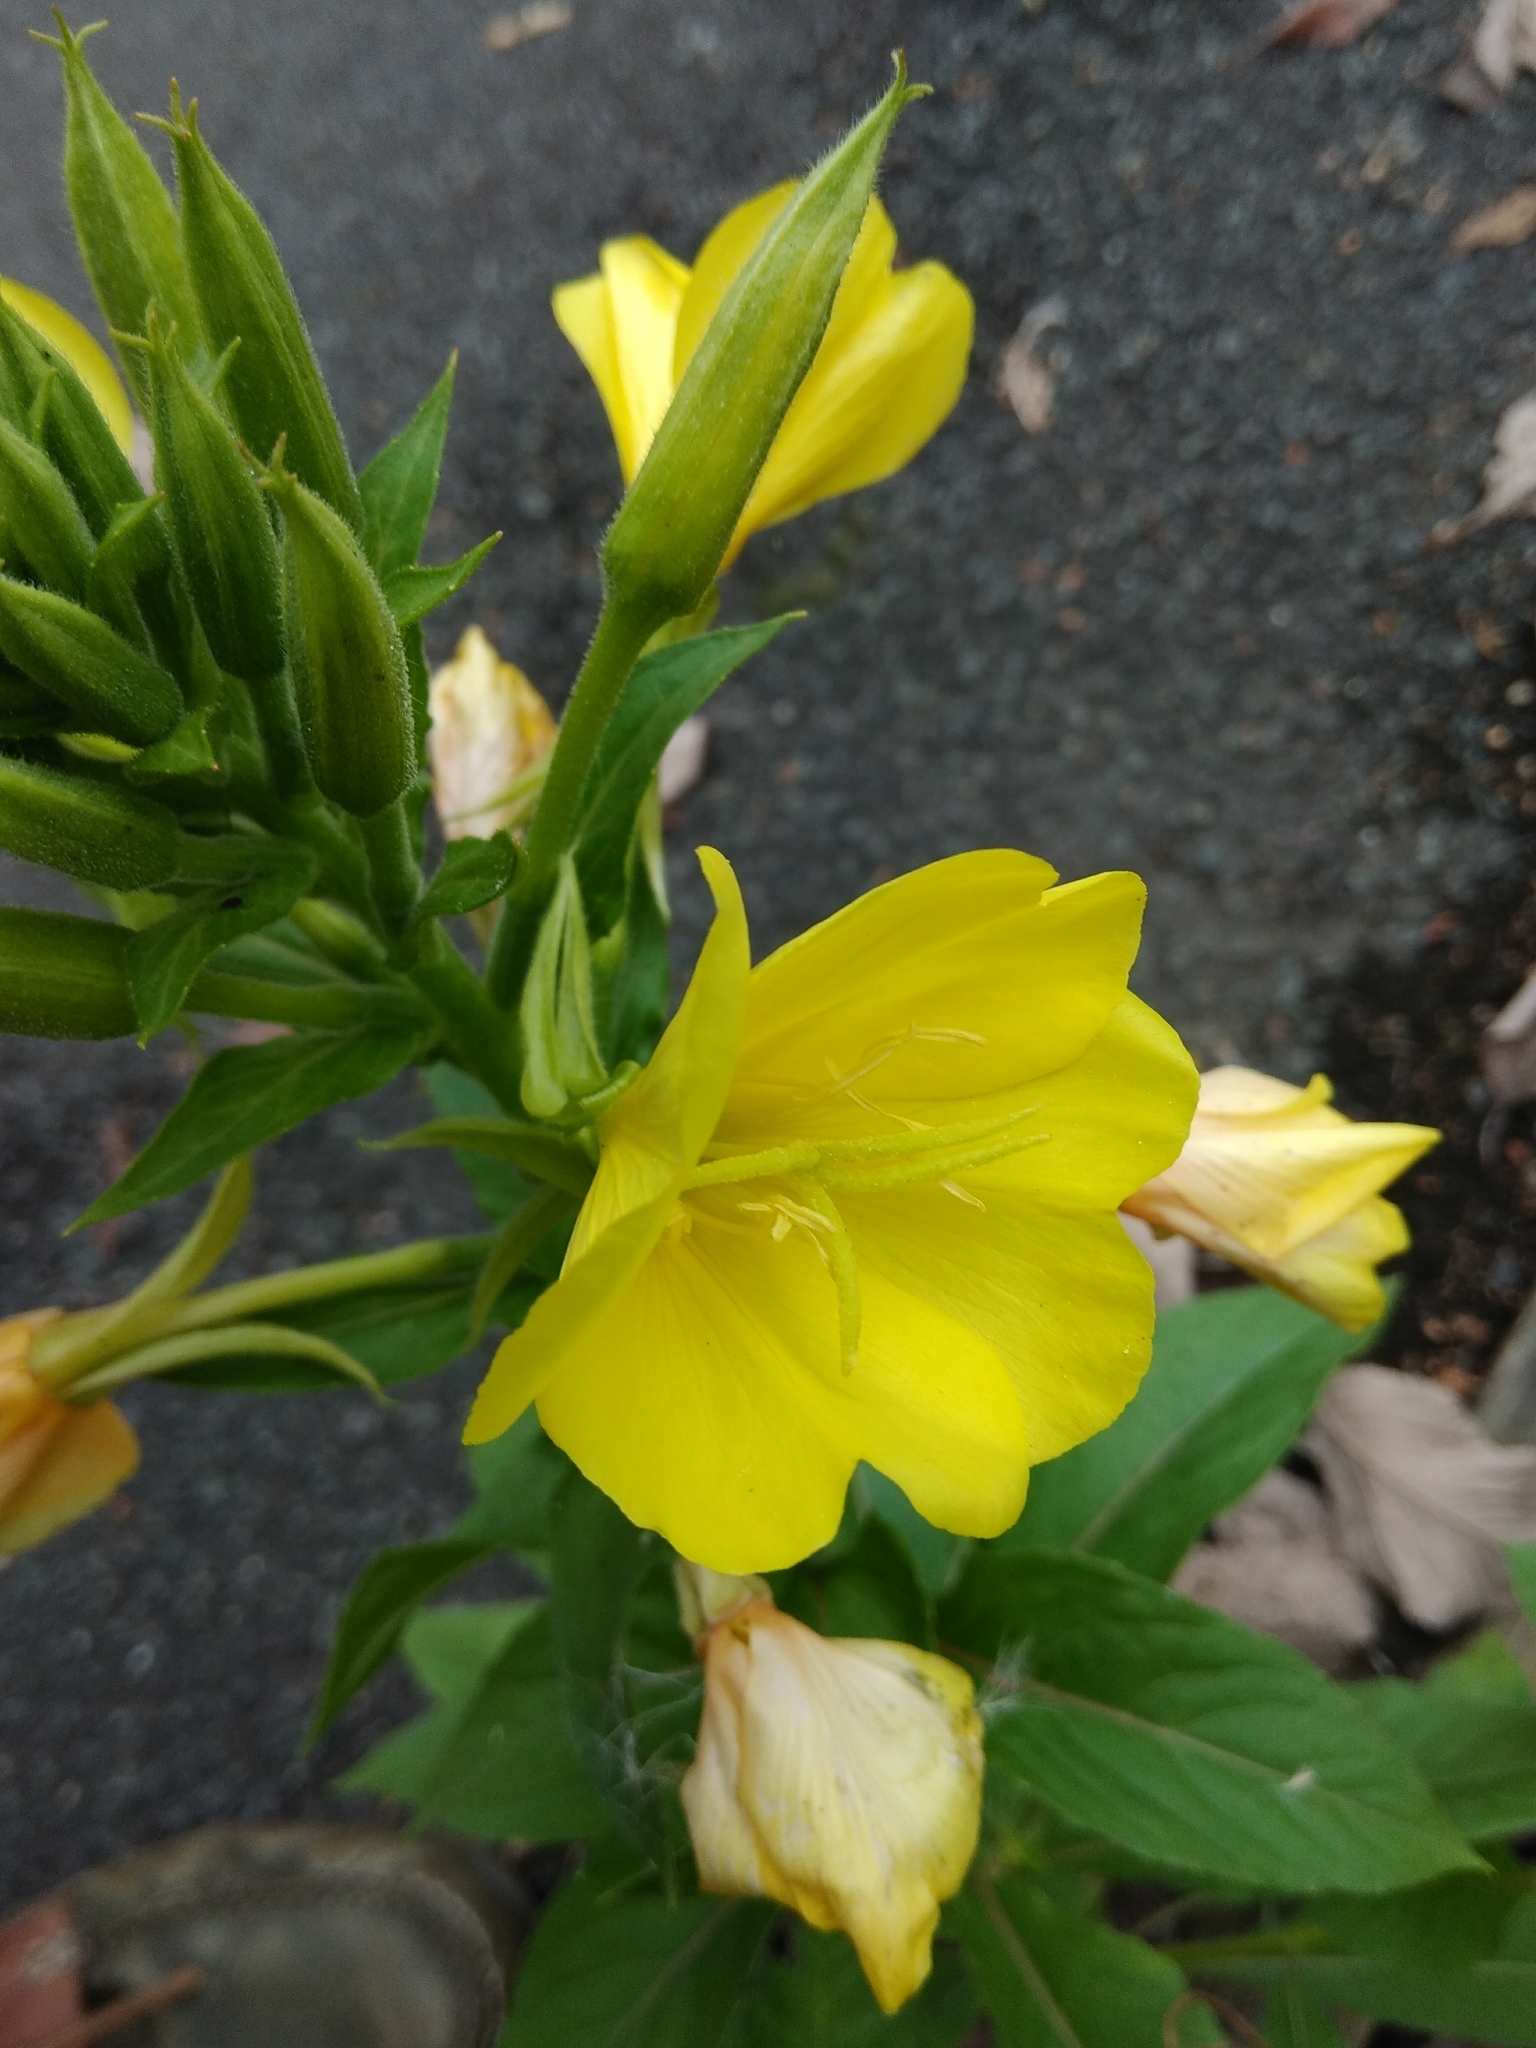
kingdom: Plantae
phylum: Tracheophyta
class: Magnoliopsida
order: Myrtales
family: Onagraceae
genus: Oenothera
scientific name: Oenothera biennis
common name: Common evening-primrose
